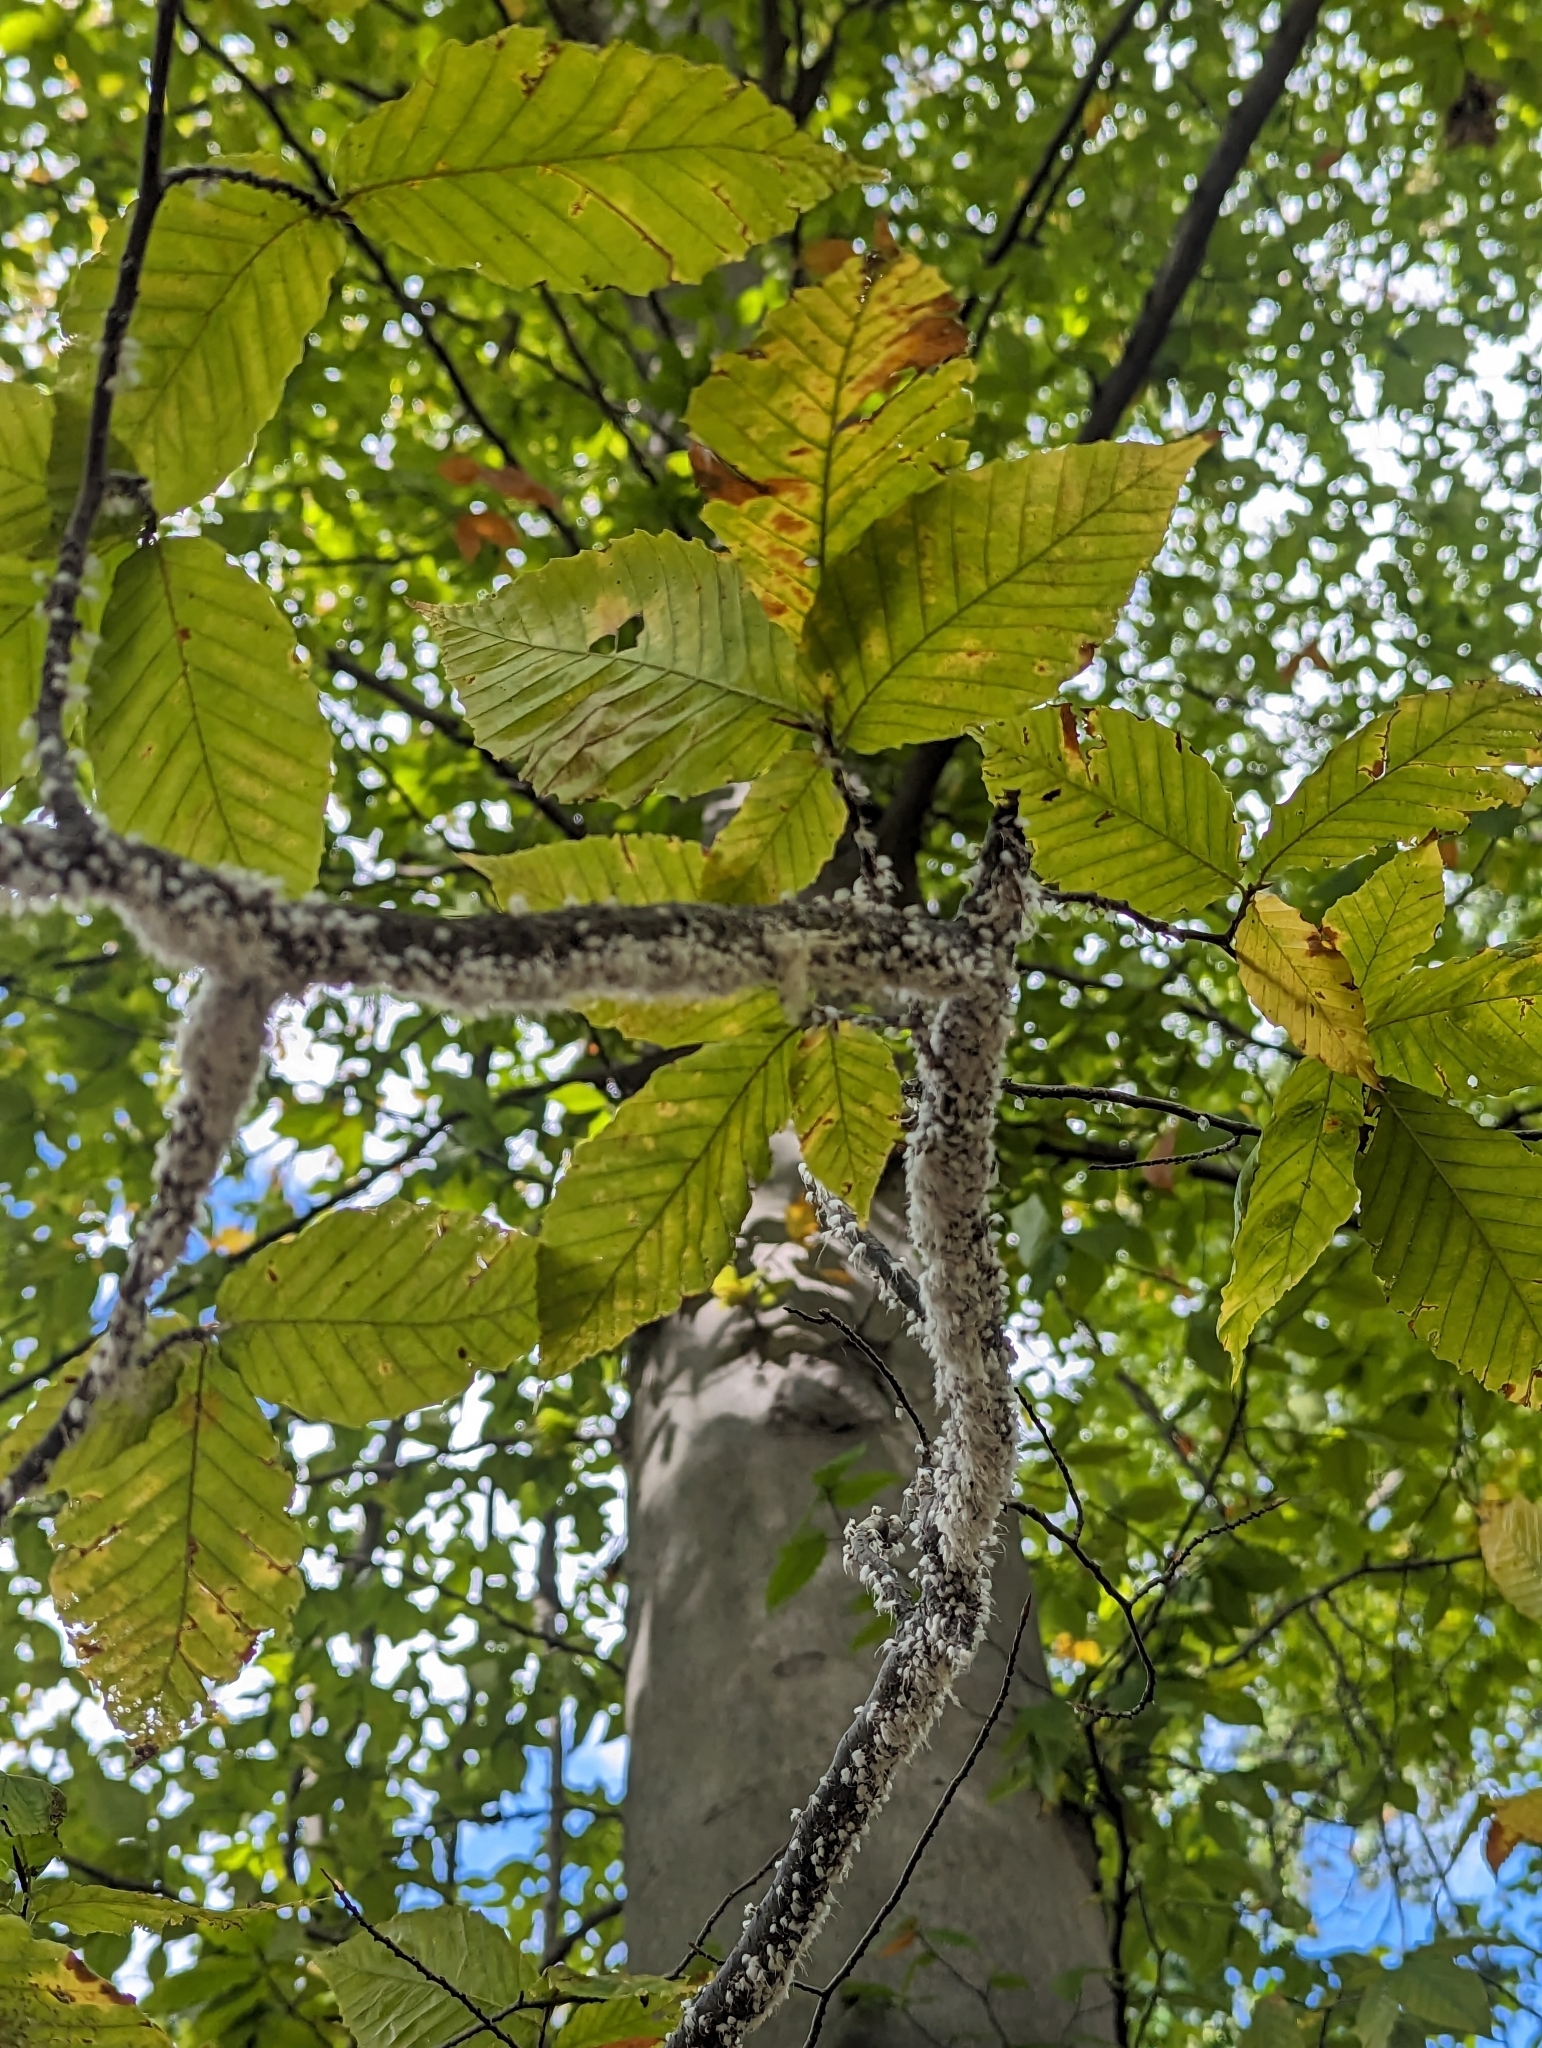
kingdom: Plantae
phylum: Tracheophyta
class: Magnoliopsida
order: Fagales
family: Fagaceae
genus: Fagus
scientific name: Fagus grandifolia
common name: American beech
